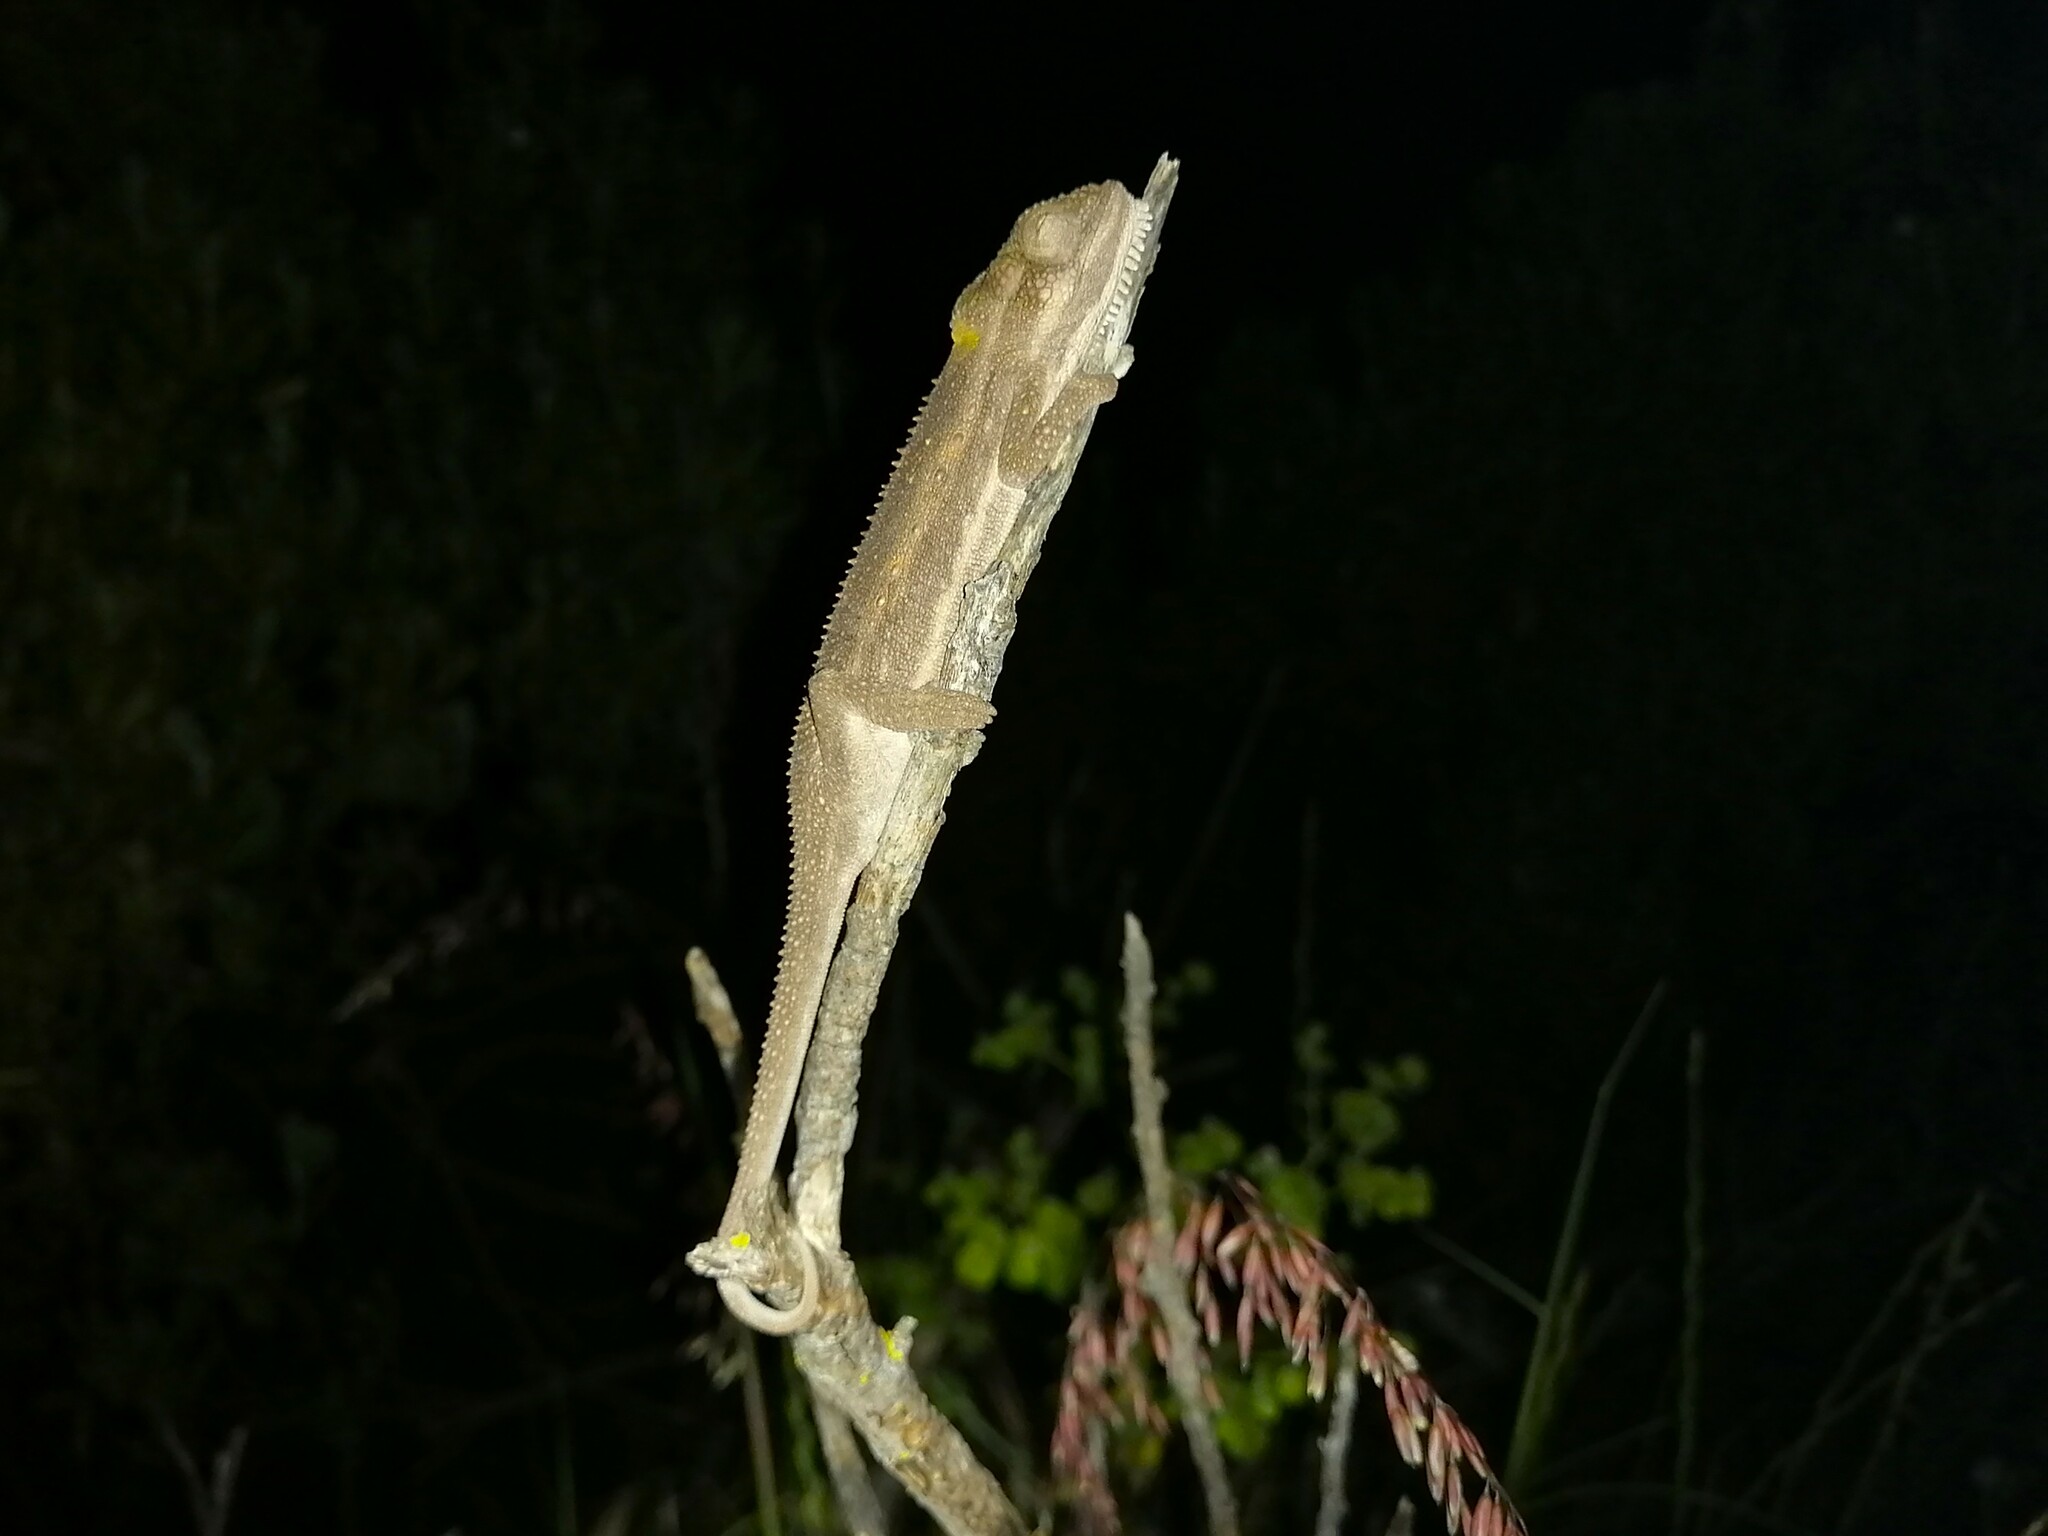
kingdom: Animalia
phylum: Chordata
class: Squamata
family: Chamaeleonidae
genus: Bradypodion
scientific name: Bradypodion pumilum
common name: Cape dwarf chameleon
